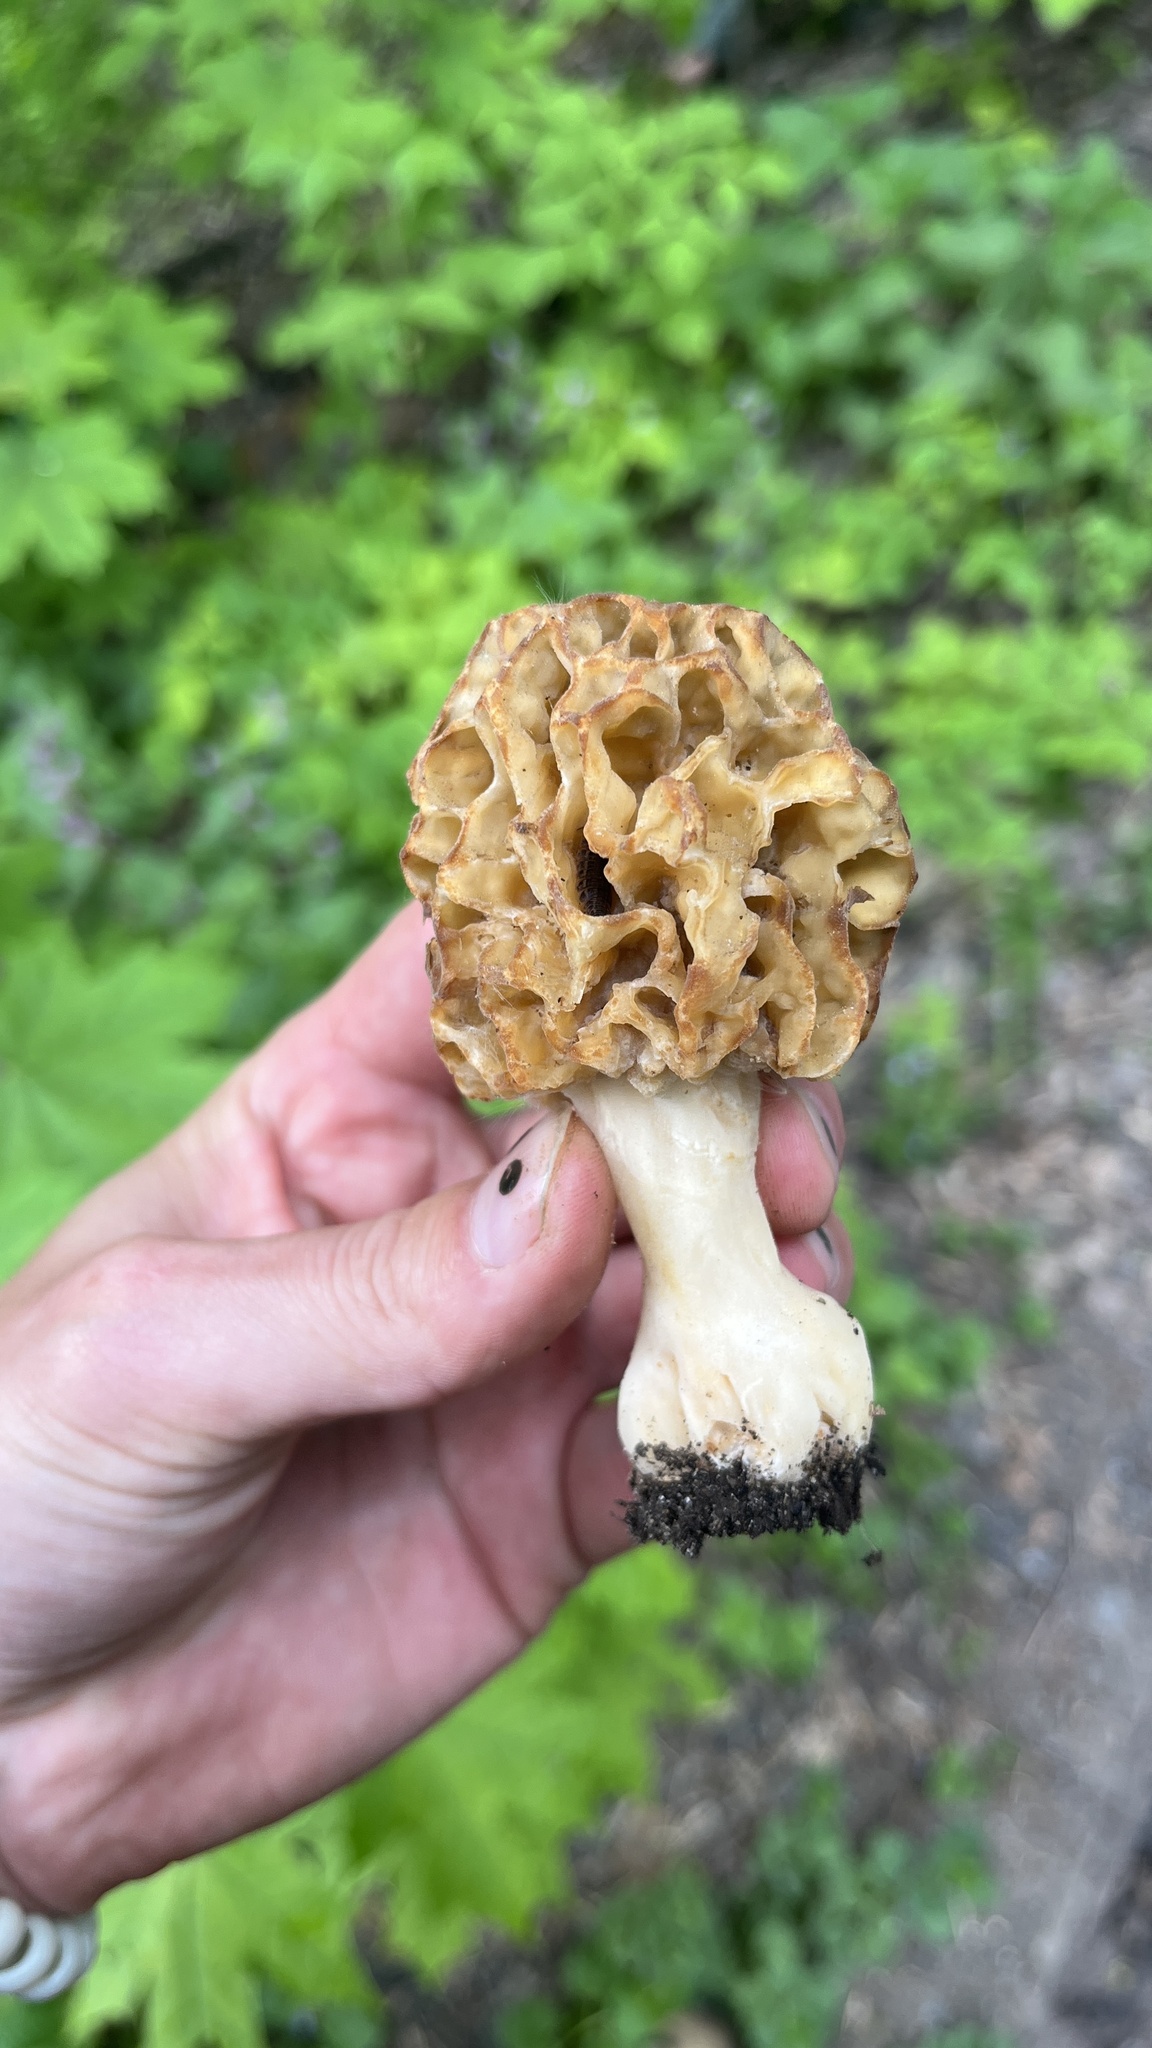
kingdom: Fungi
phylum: Ascomycota
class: Pezizomycetes
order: Pezizales
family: Morchellaceae
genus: Morchella
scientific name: Morchella esculenta
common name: Morel
